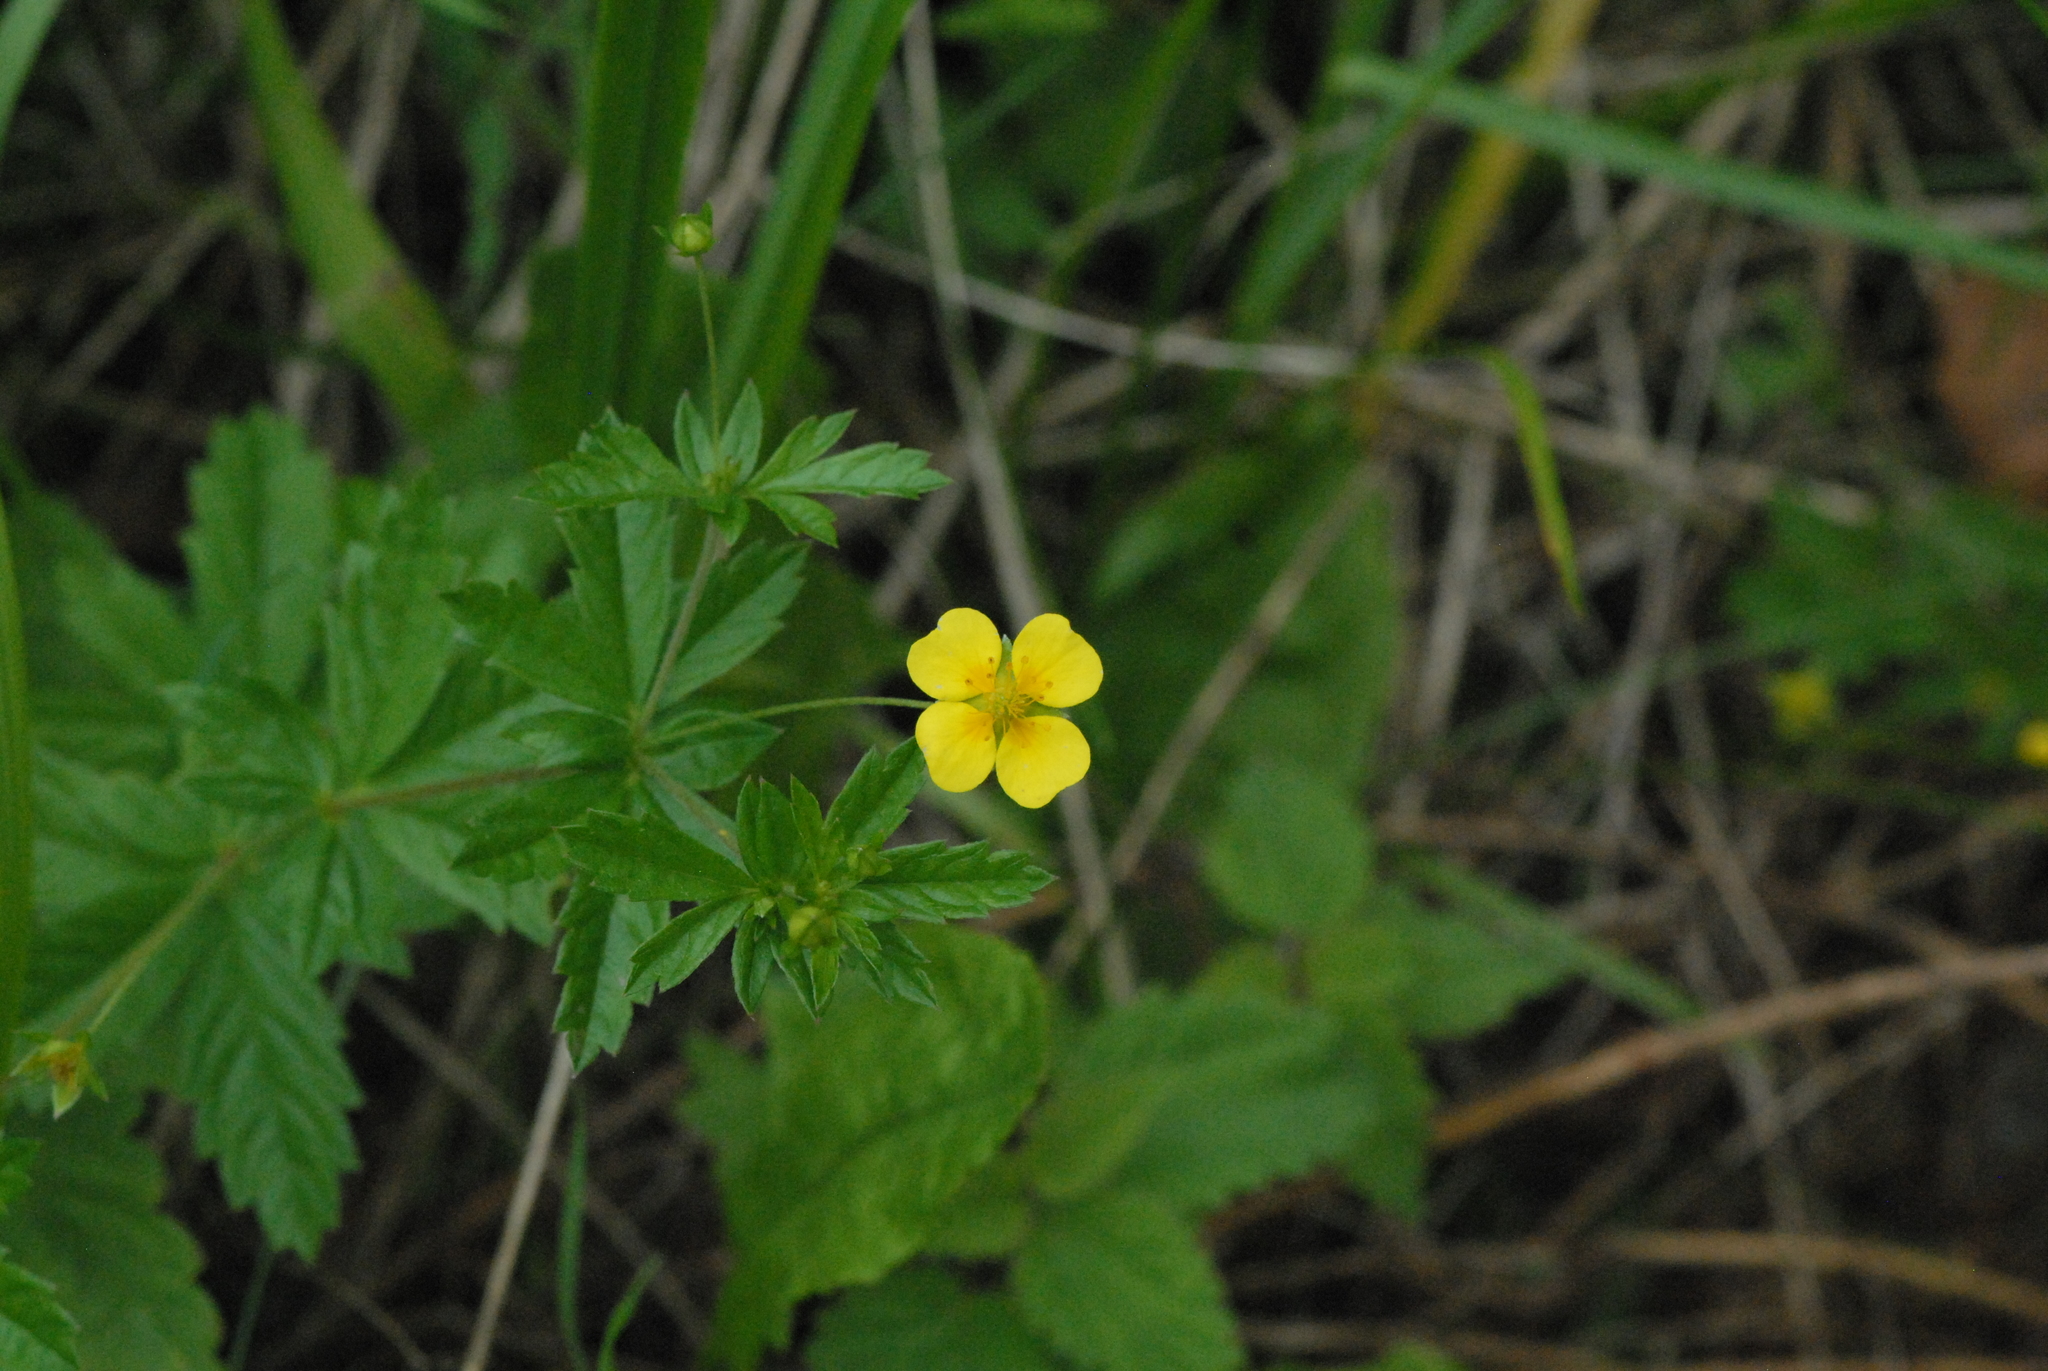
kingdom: Plantae
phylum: Tracheophyta
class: Magnoliopsida
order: Rosales
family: Rosaceae
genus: Potentilla
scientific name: Potentilla erecta
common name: Tormentil
